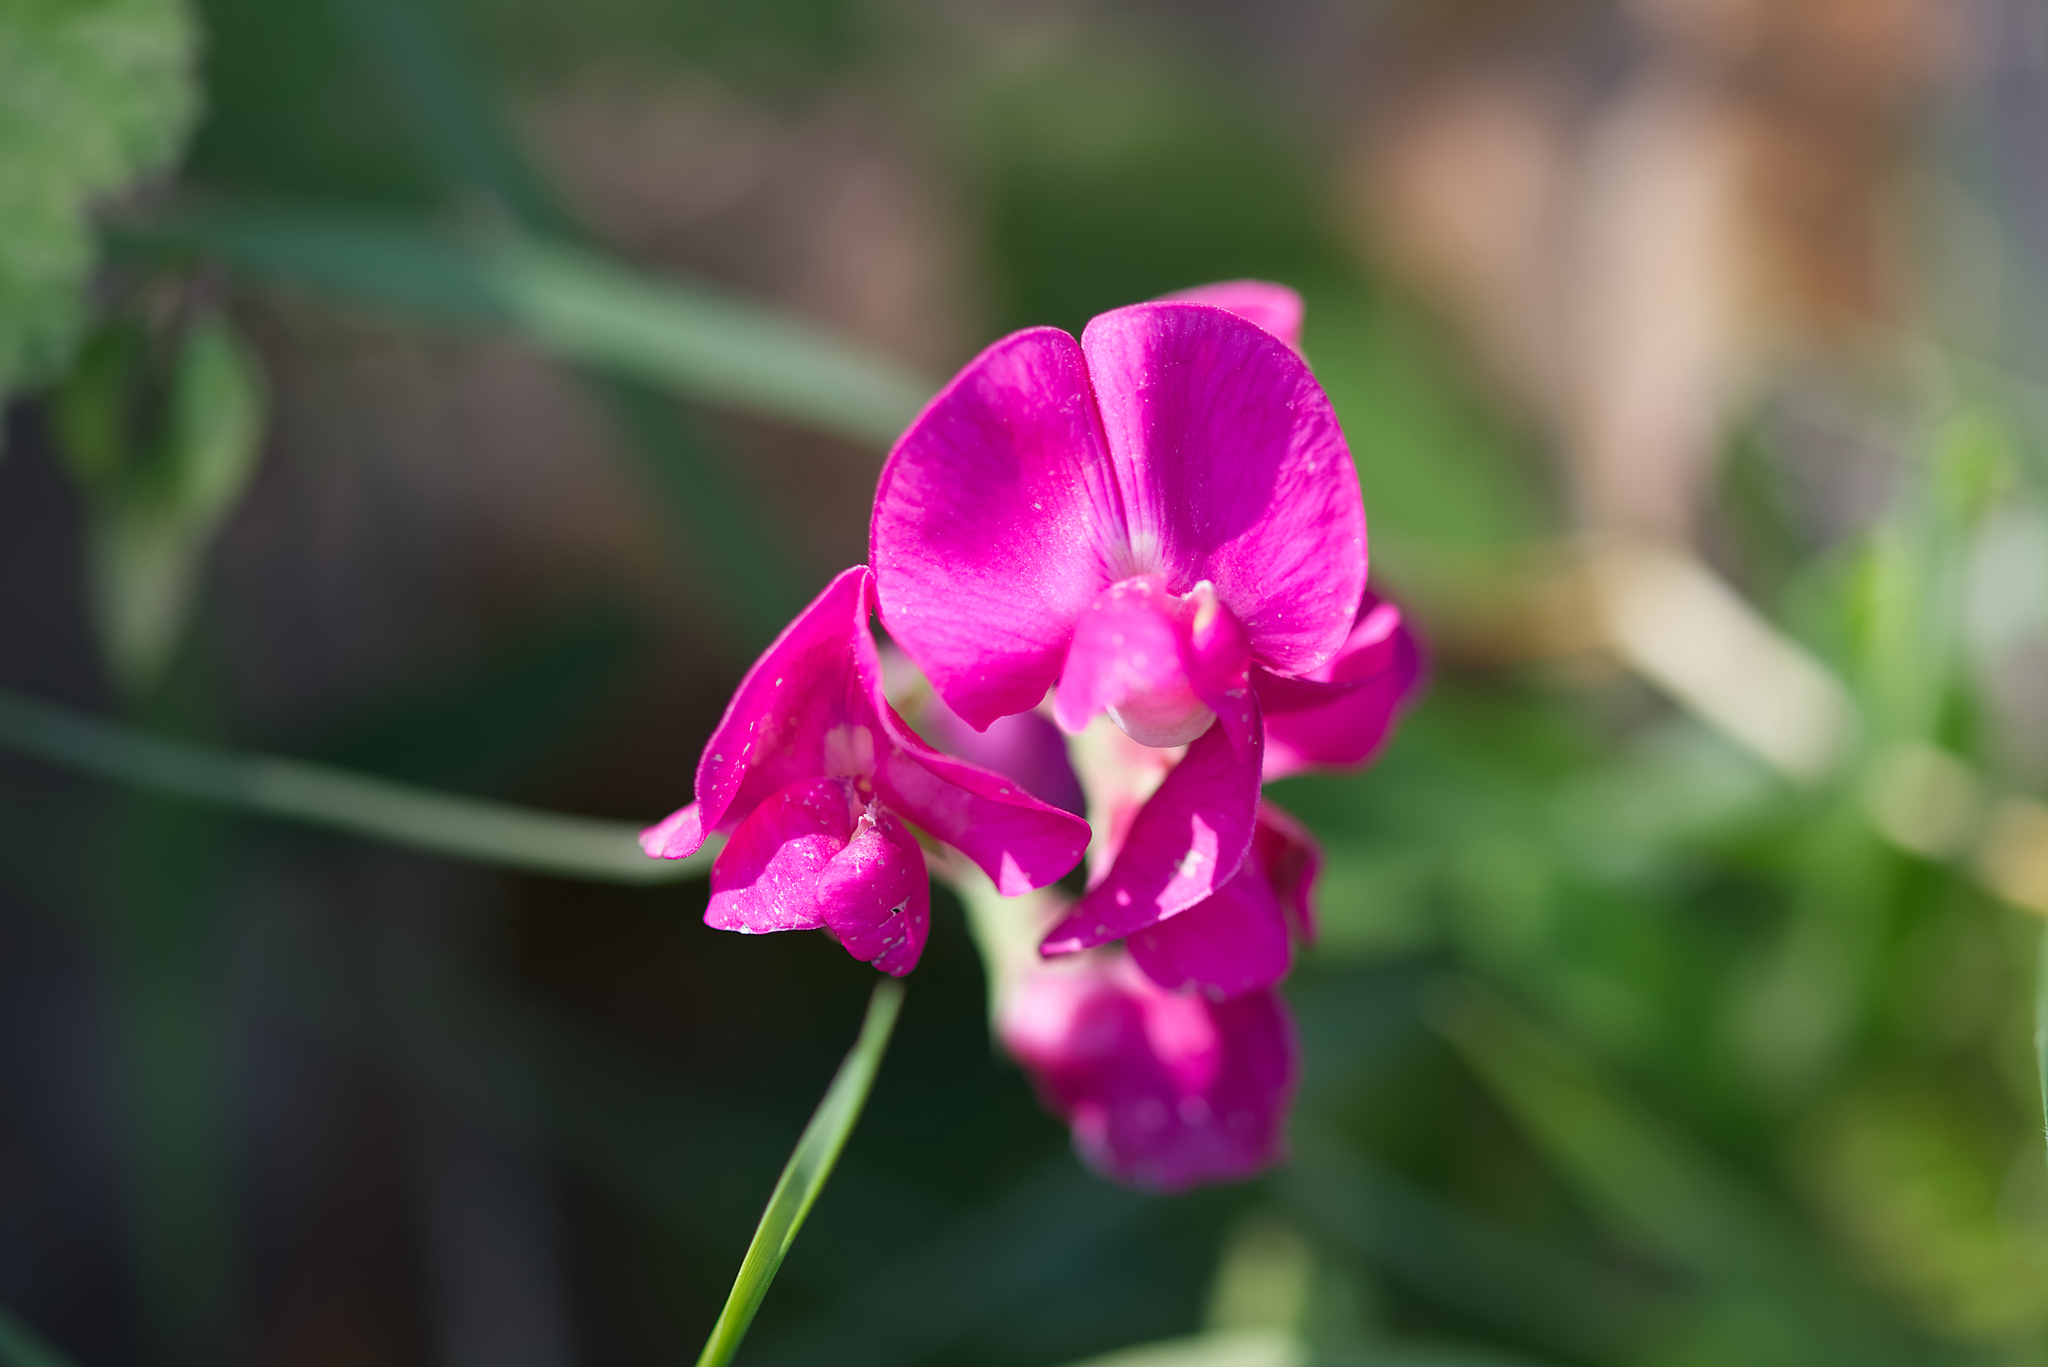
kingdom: Plantae
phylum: Tracheophyta
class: Magnoliopsida
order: Fabales
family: Fabaceae
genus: Lathyrus
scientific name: Lathyrus tuberosus
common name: Tuberous pea
